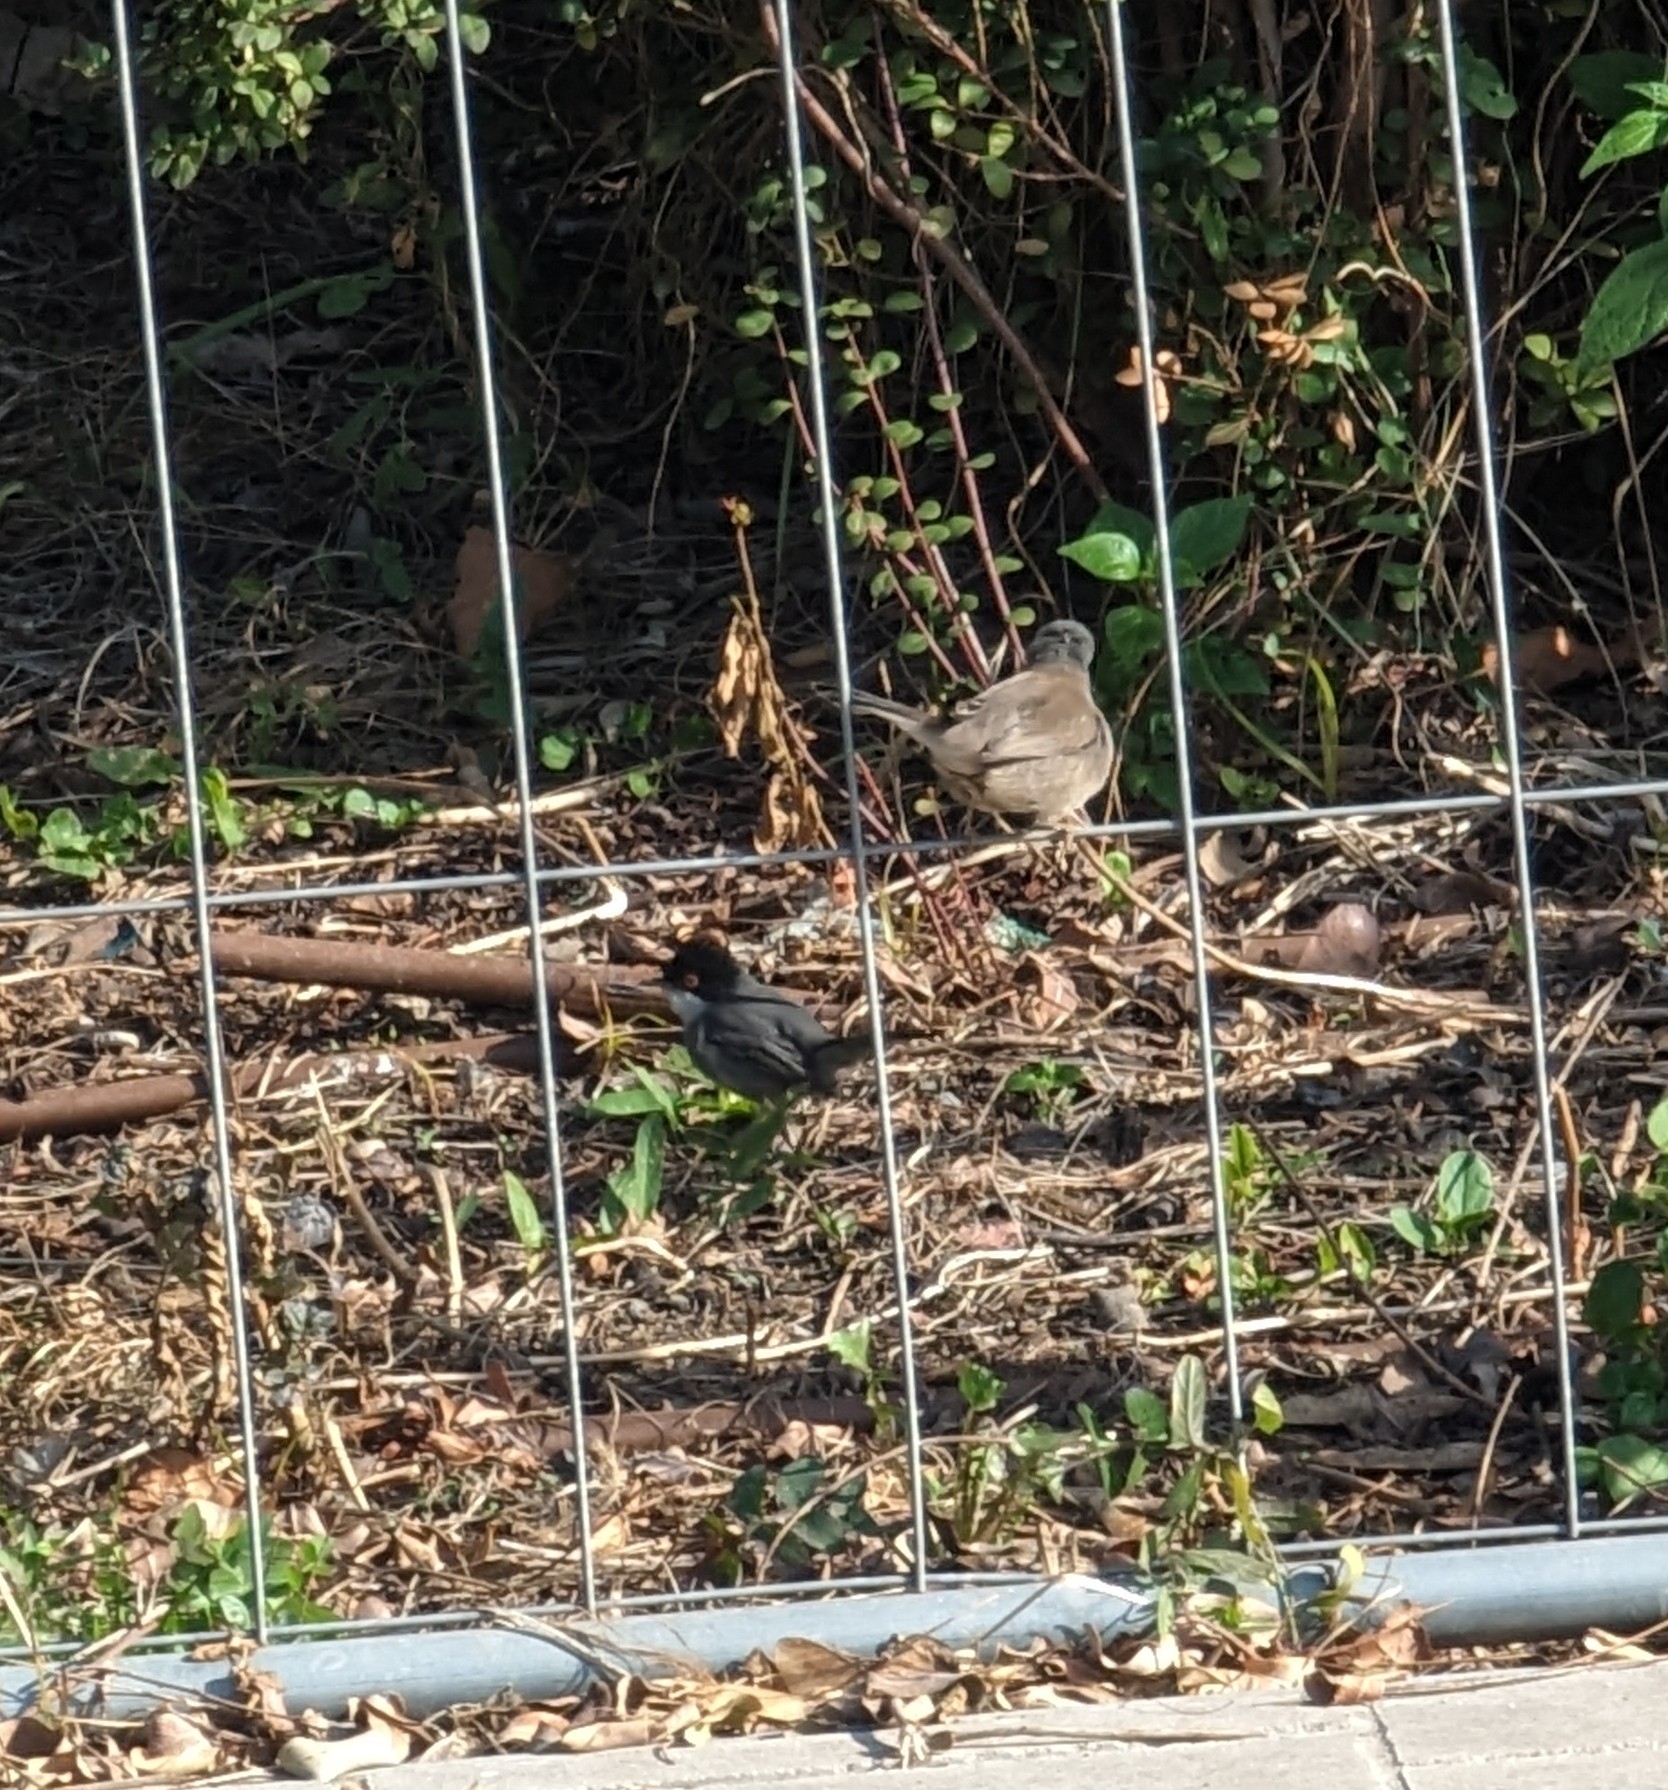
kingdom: Animalia
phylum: Chordata
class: Aves
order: Passeriformes
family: Sylviidae
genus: Curruca
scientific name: Curruca melanocephala
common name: Sardinian warbler
